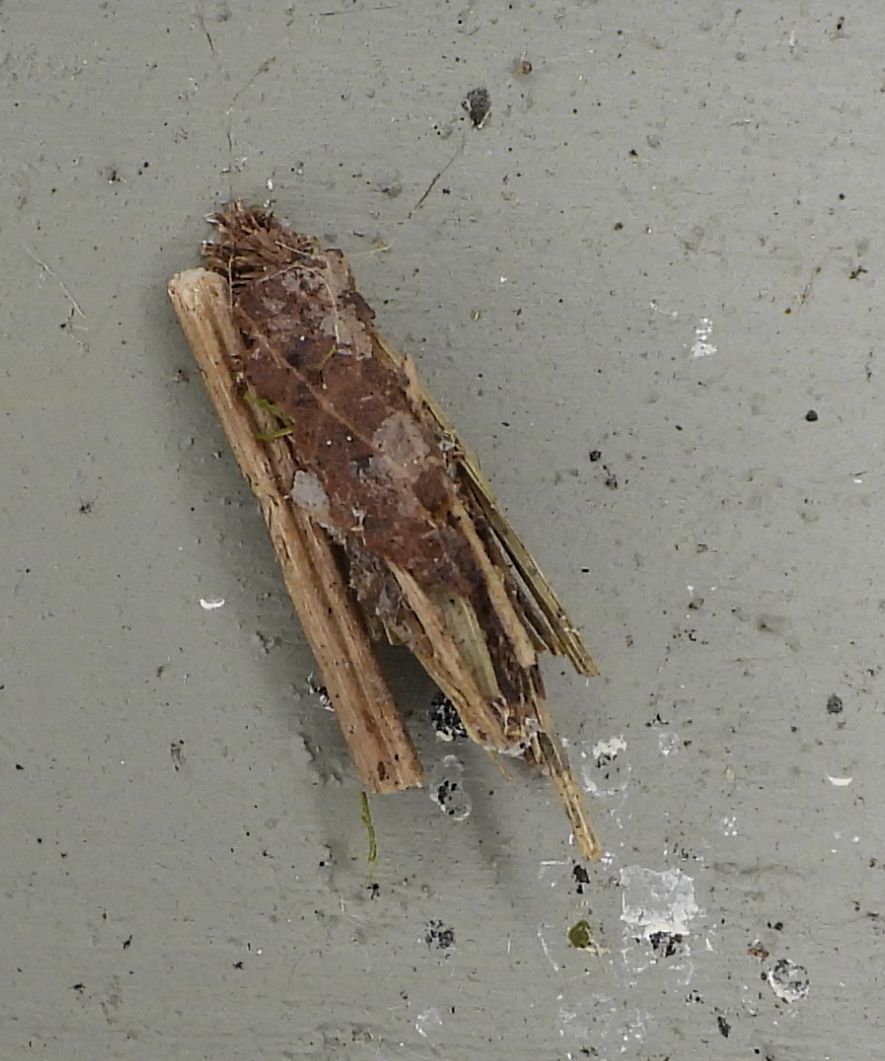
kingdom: Animalia
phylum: Arthropoda
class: Insecta
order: Lepidoptera
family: Psychidae
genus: Psyche
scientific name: Psyche casta
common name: Common sweep
